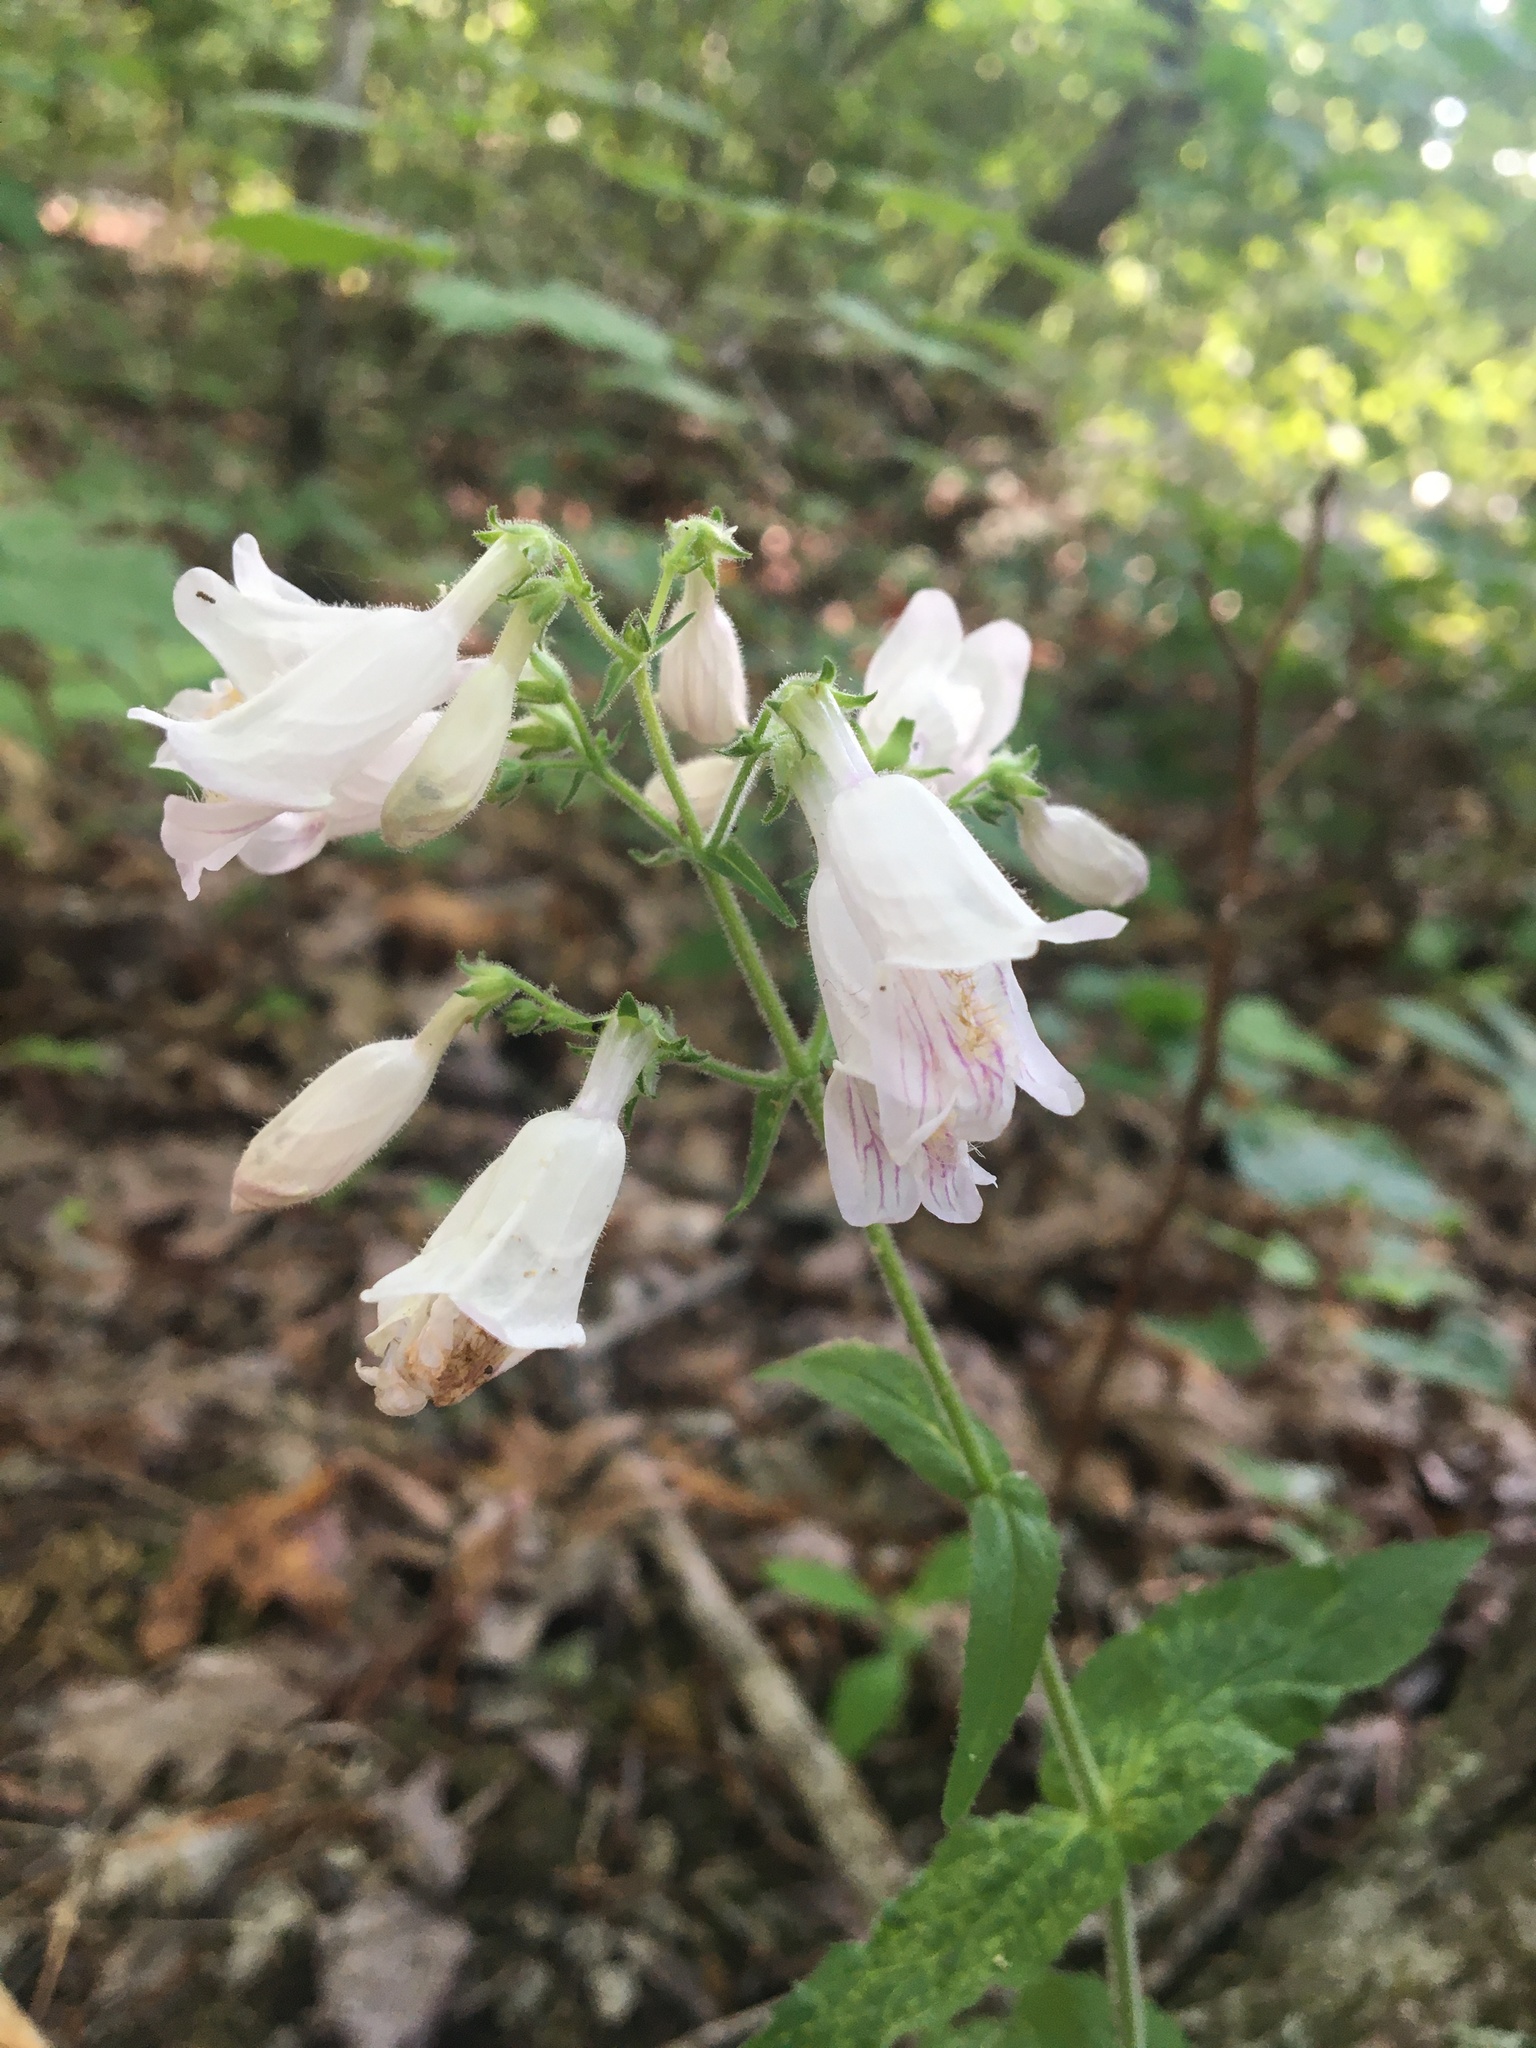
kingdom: Plantae
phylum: Tracheophyta
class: Magnoliopsida
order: Lamiales
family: Plantaginaceae
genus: Penstemon
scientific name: Penstemon canescens
